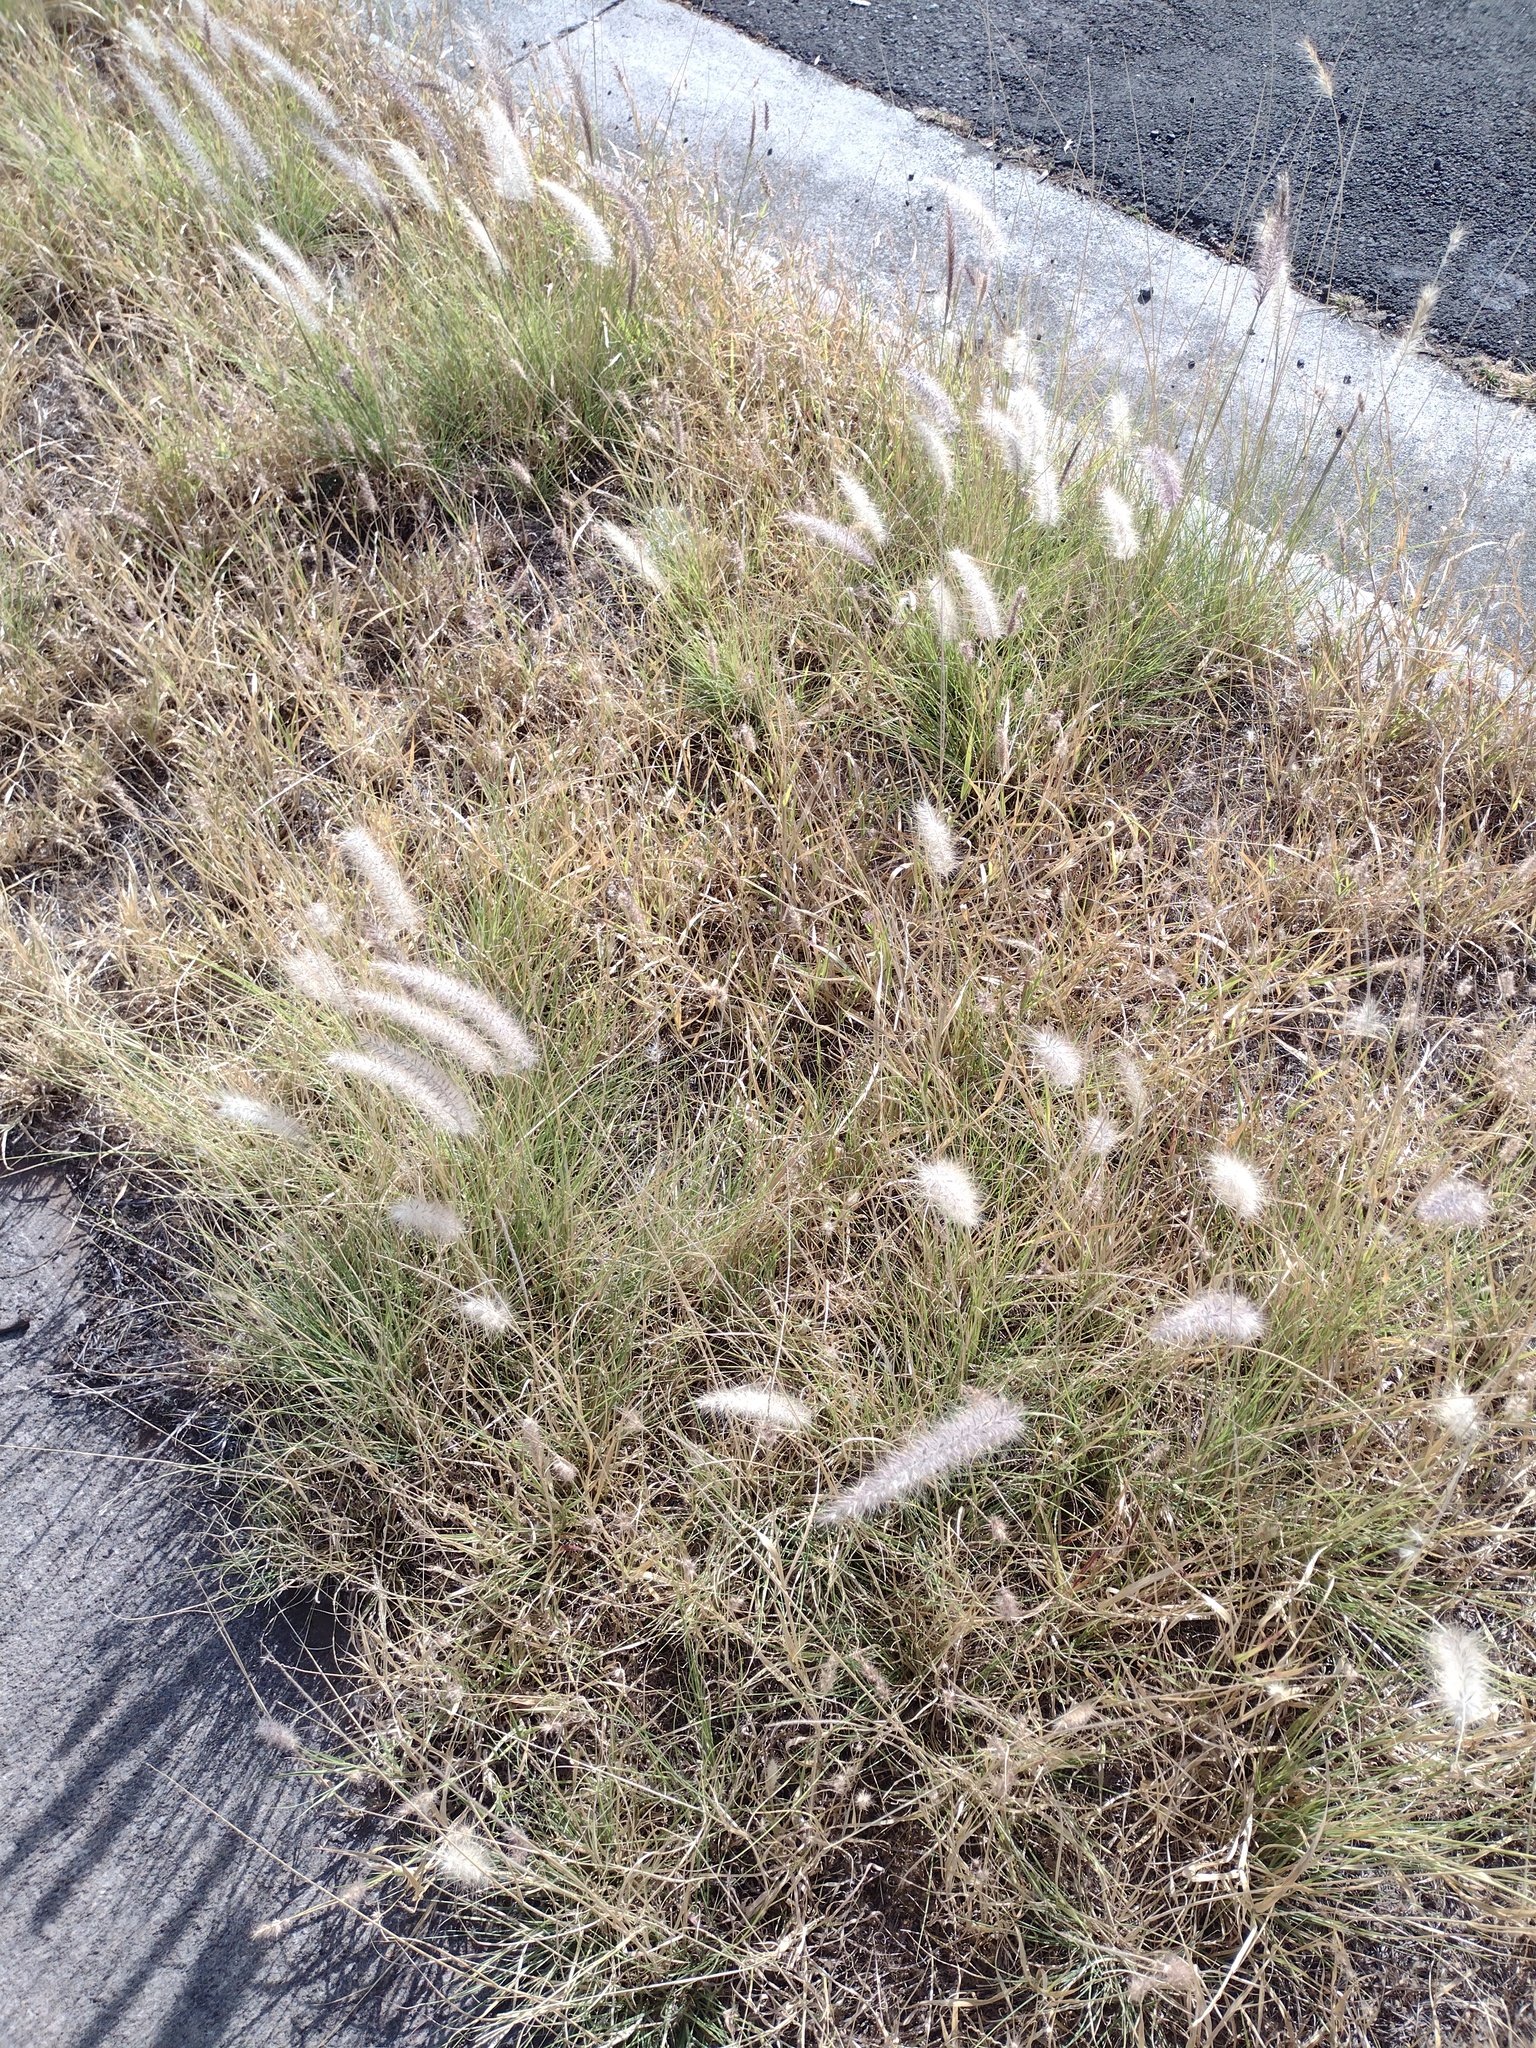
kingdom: Plantae
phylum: Tracheophyta
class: Liliopsida
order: Poales
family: Poaceae
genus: Cenchrus
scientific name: Cenchrus setaceus
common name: Crimson fountaingrass
